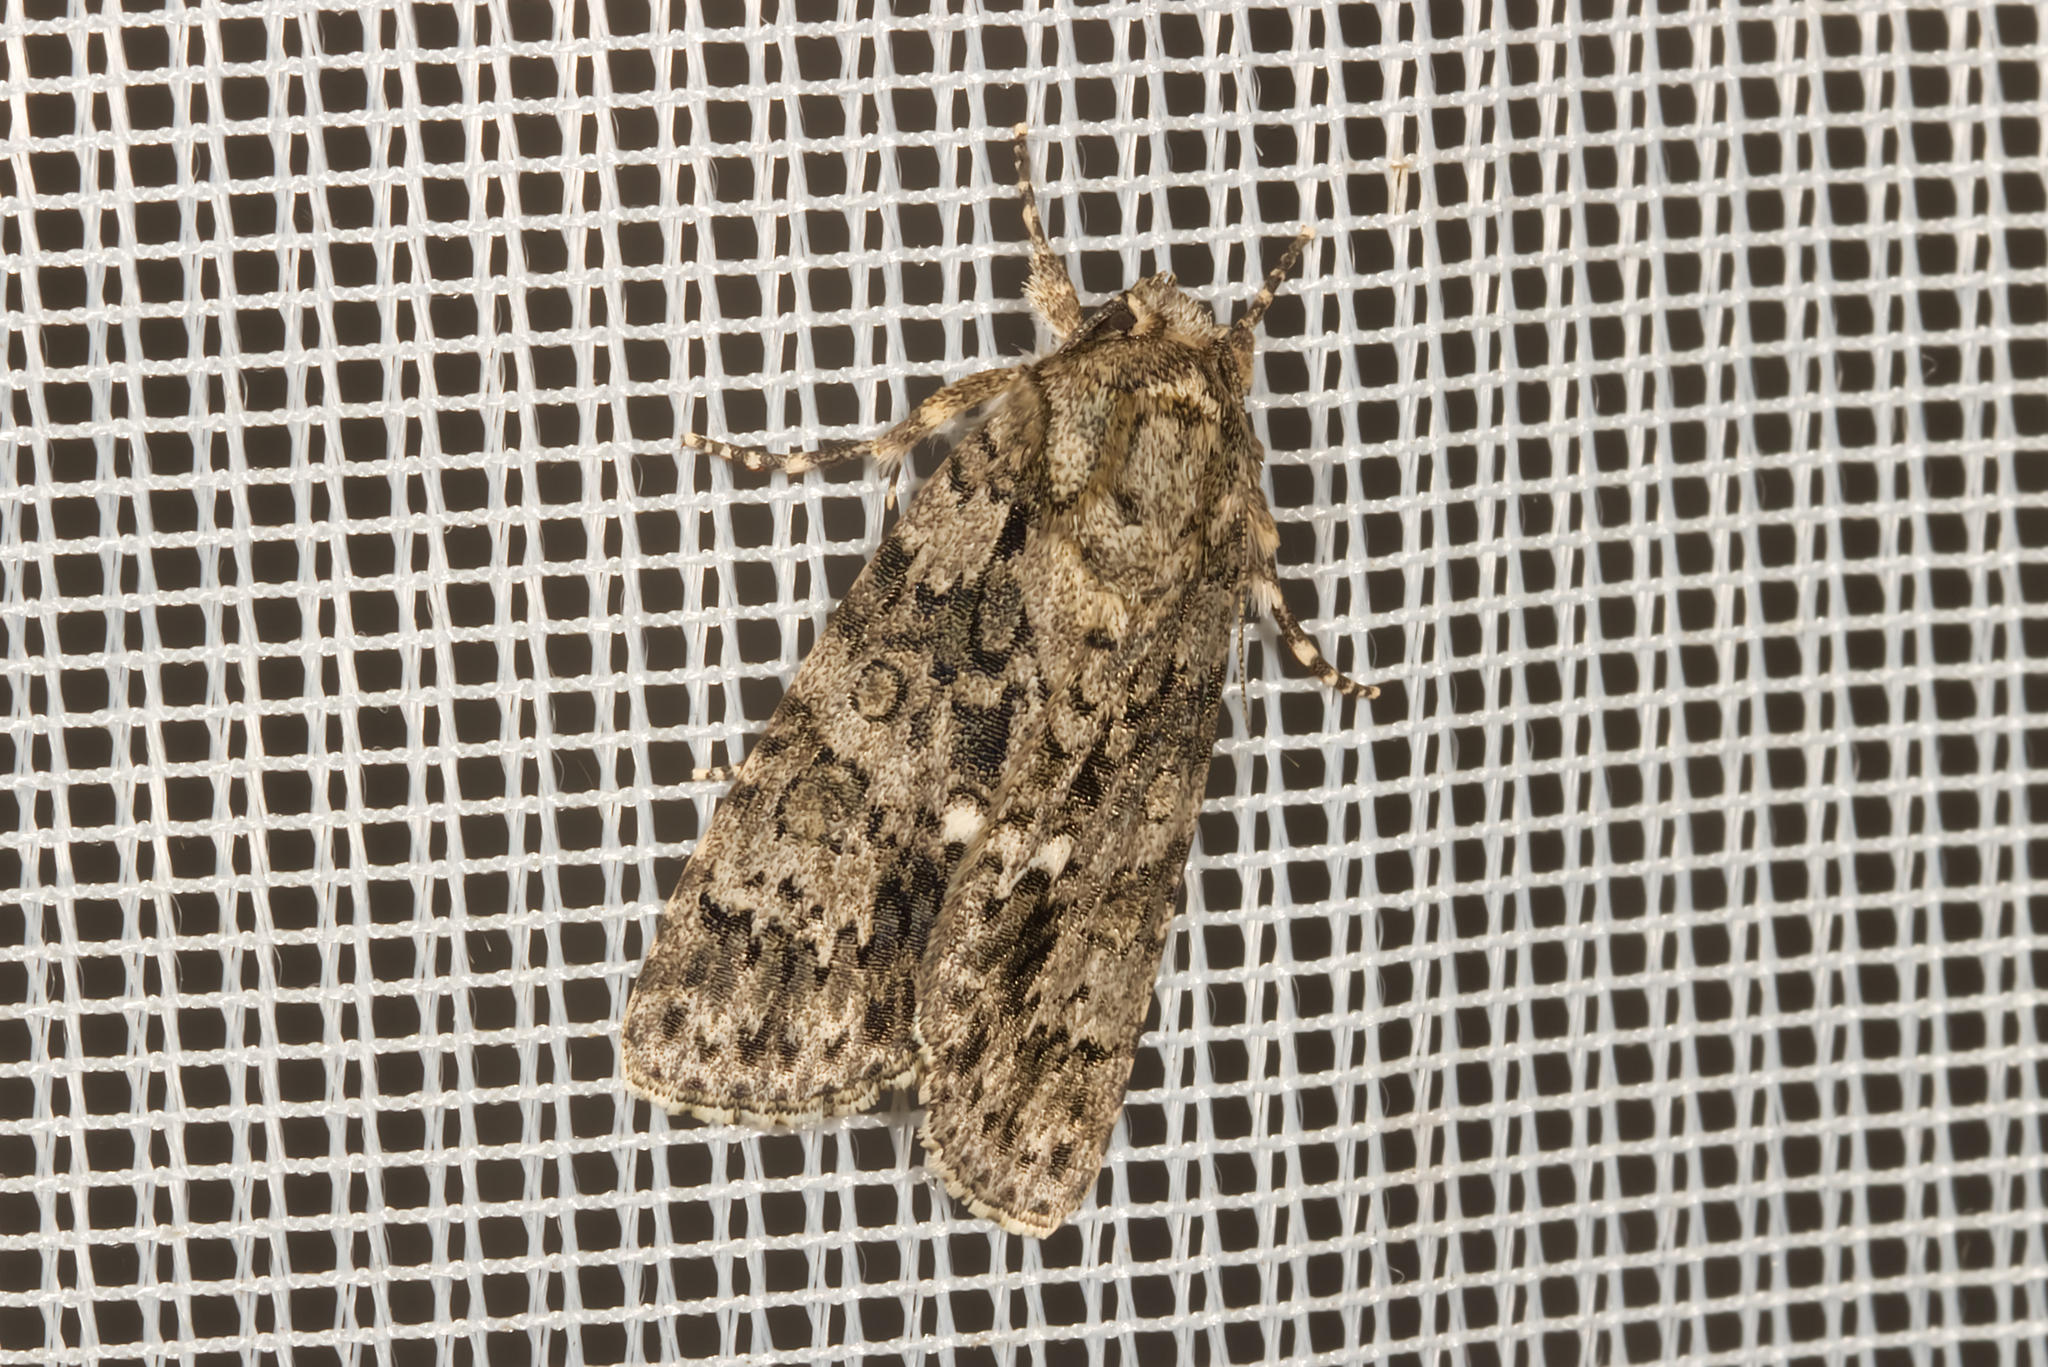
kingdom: Animalia
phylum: Arthropoda
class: Insecta
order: Lepidoptera
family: Noctuidae
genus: Acronicta
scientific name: Acronicta rumicis
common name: Knot grass
